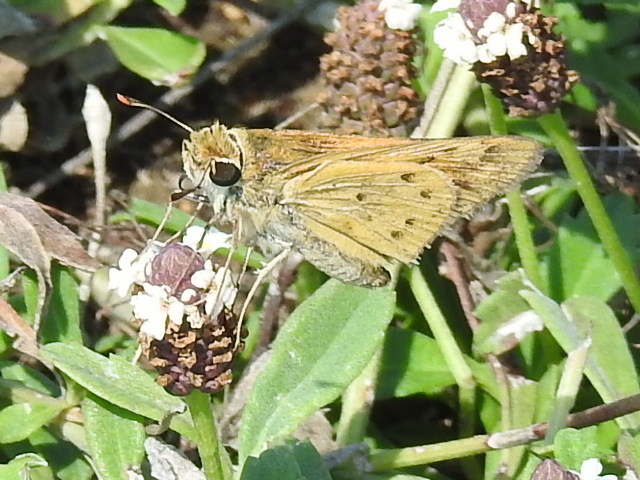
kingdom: Animalia
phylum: Arthropoda
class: Insecta
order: Lepidoptera
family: Hesperiidae
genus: Hylephila
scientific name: Hylephila phyleus
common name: Fiery skipper
